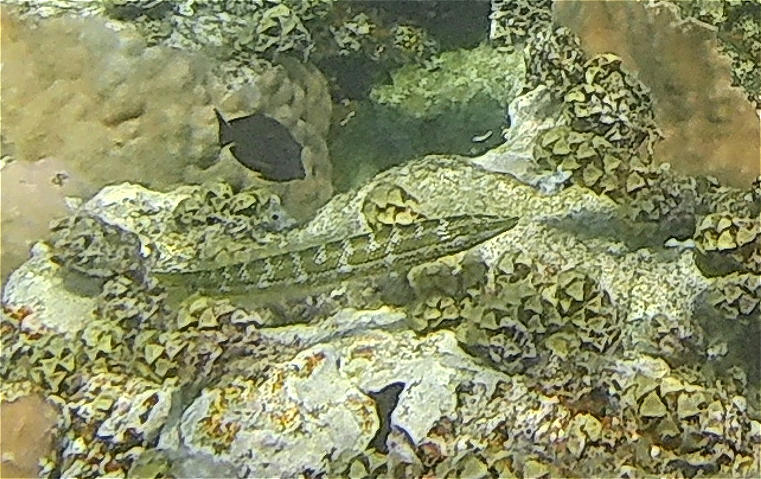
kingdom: Animalia
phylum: Chordata
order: Perciformes
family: Labridae
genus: Cheilio
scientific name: Cheilio inermis
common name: Cigar wrasse
